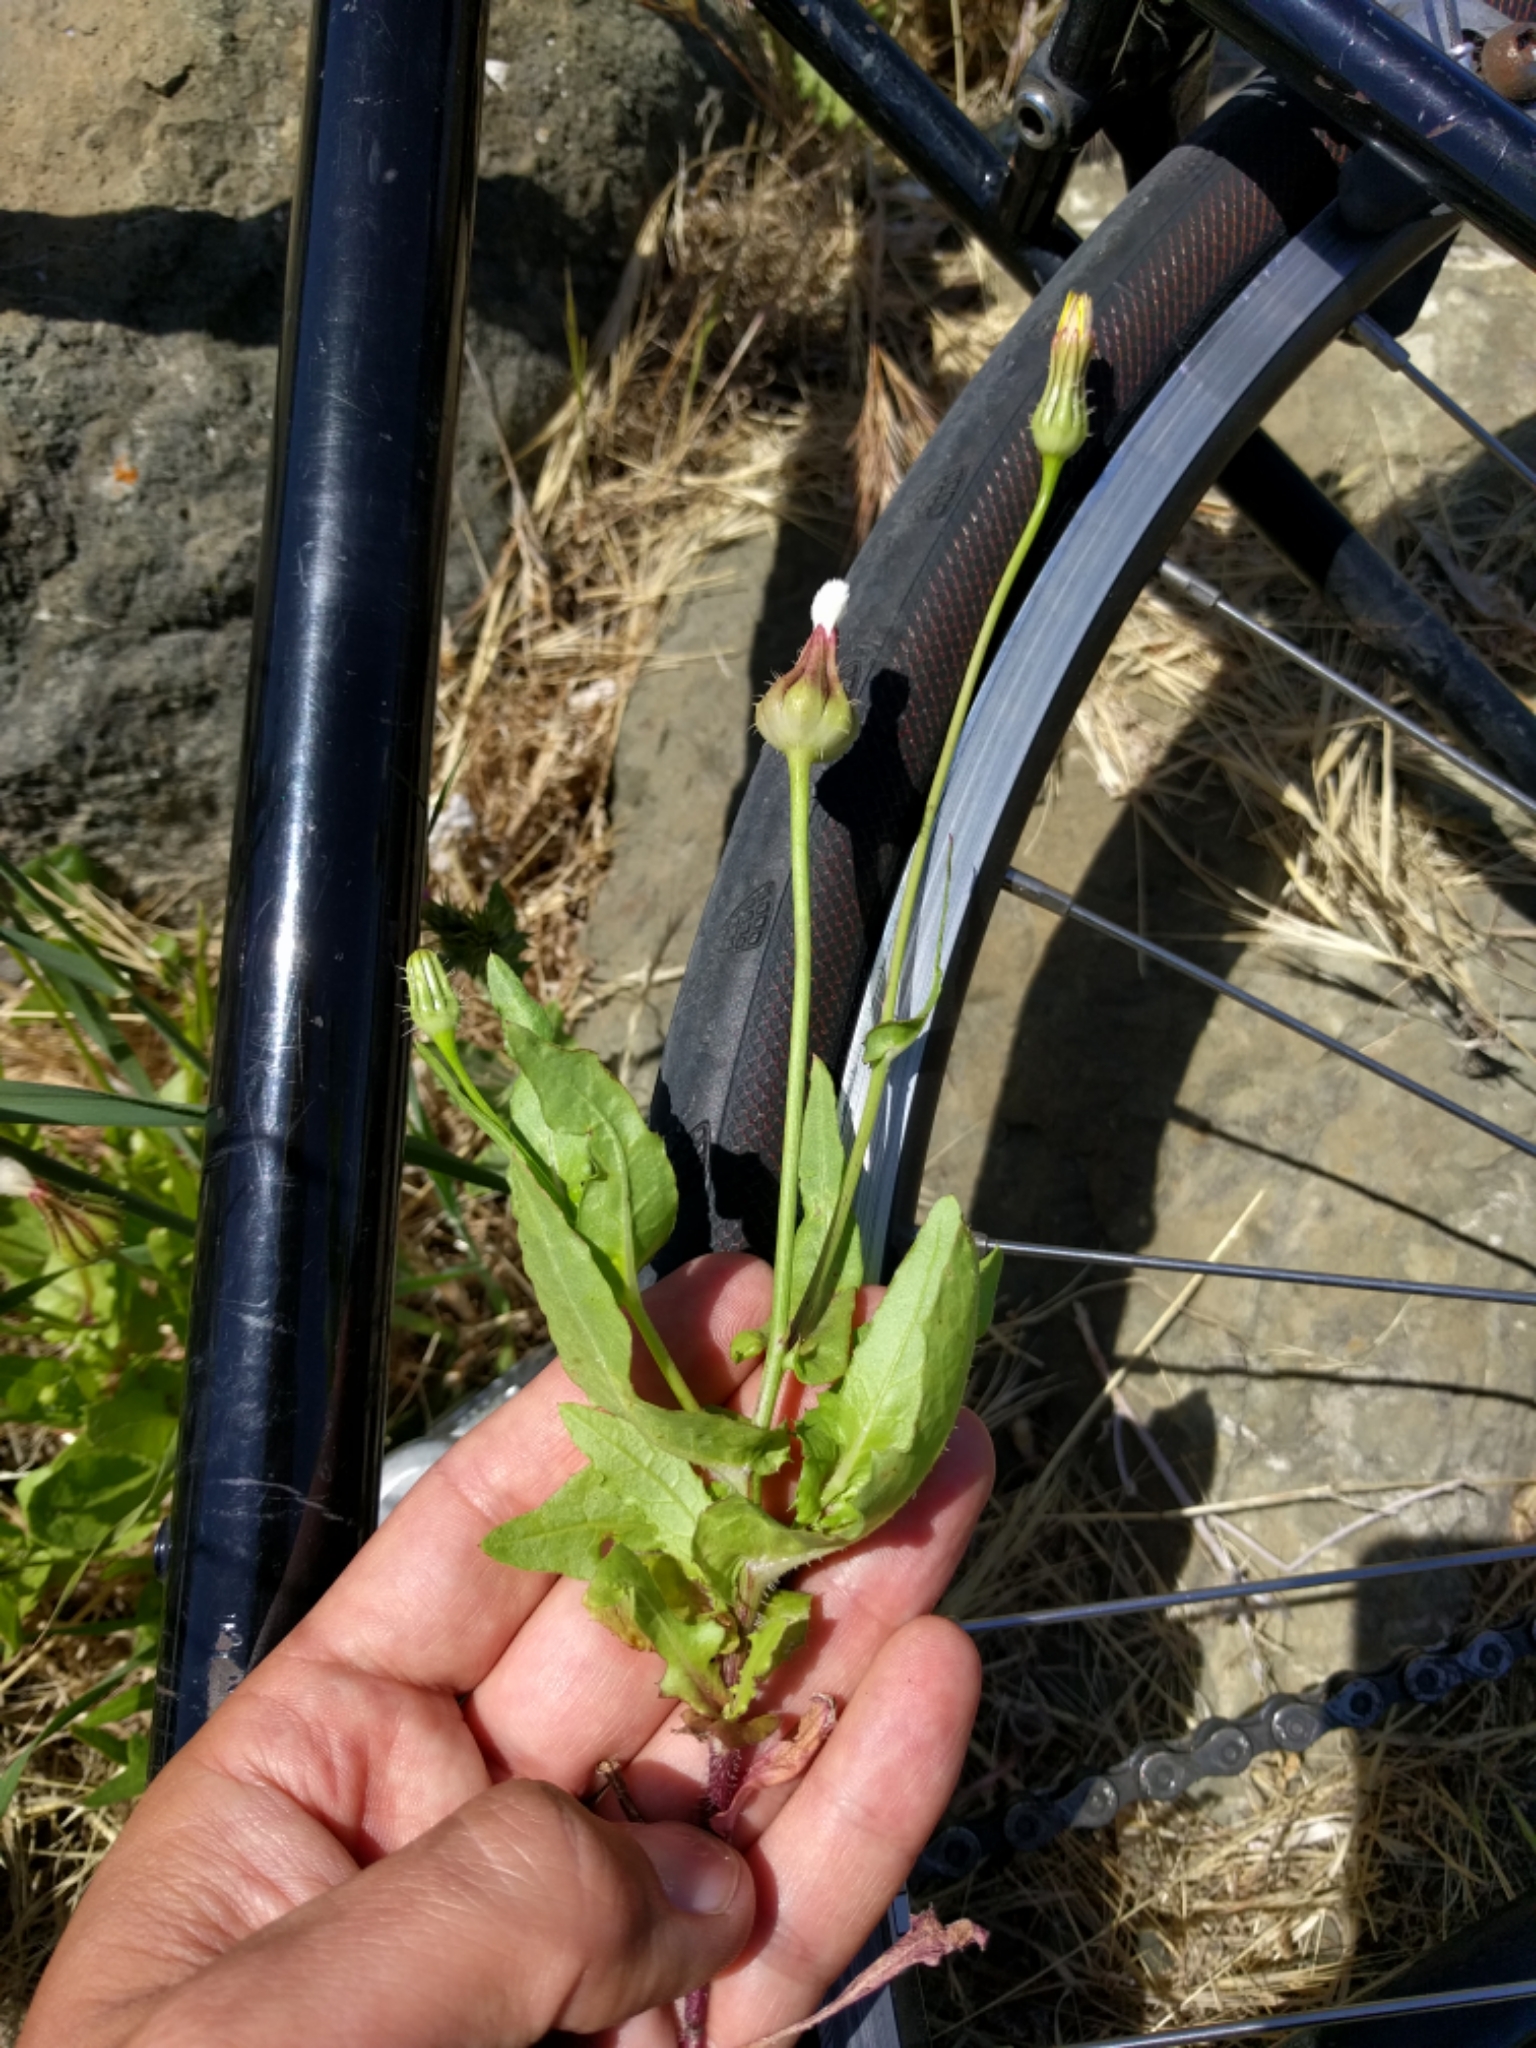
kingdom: Plantae
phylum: Tracheophyta
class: Magnoliopsida
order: Asterales
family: Asteraceae
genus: Urospermum
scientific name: Urospermum picroides
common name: False hawkbit
